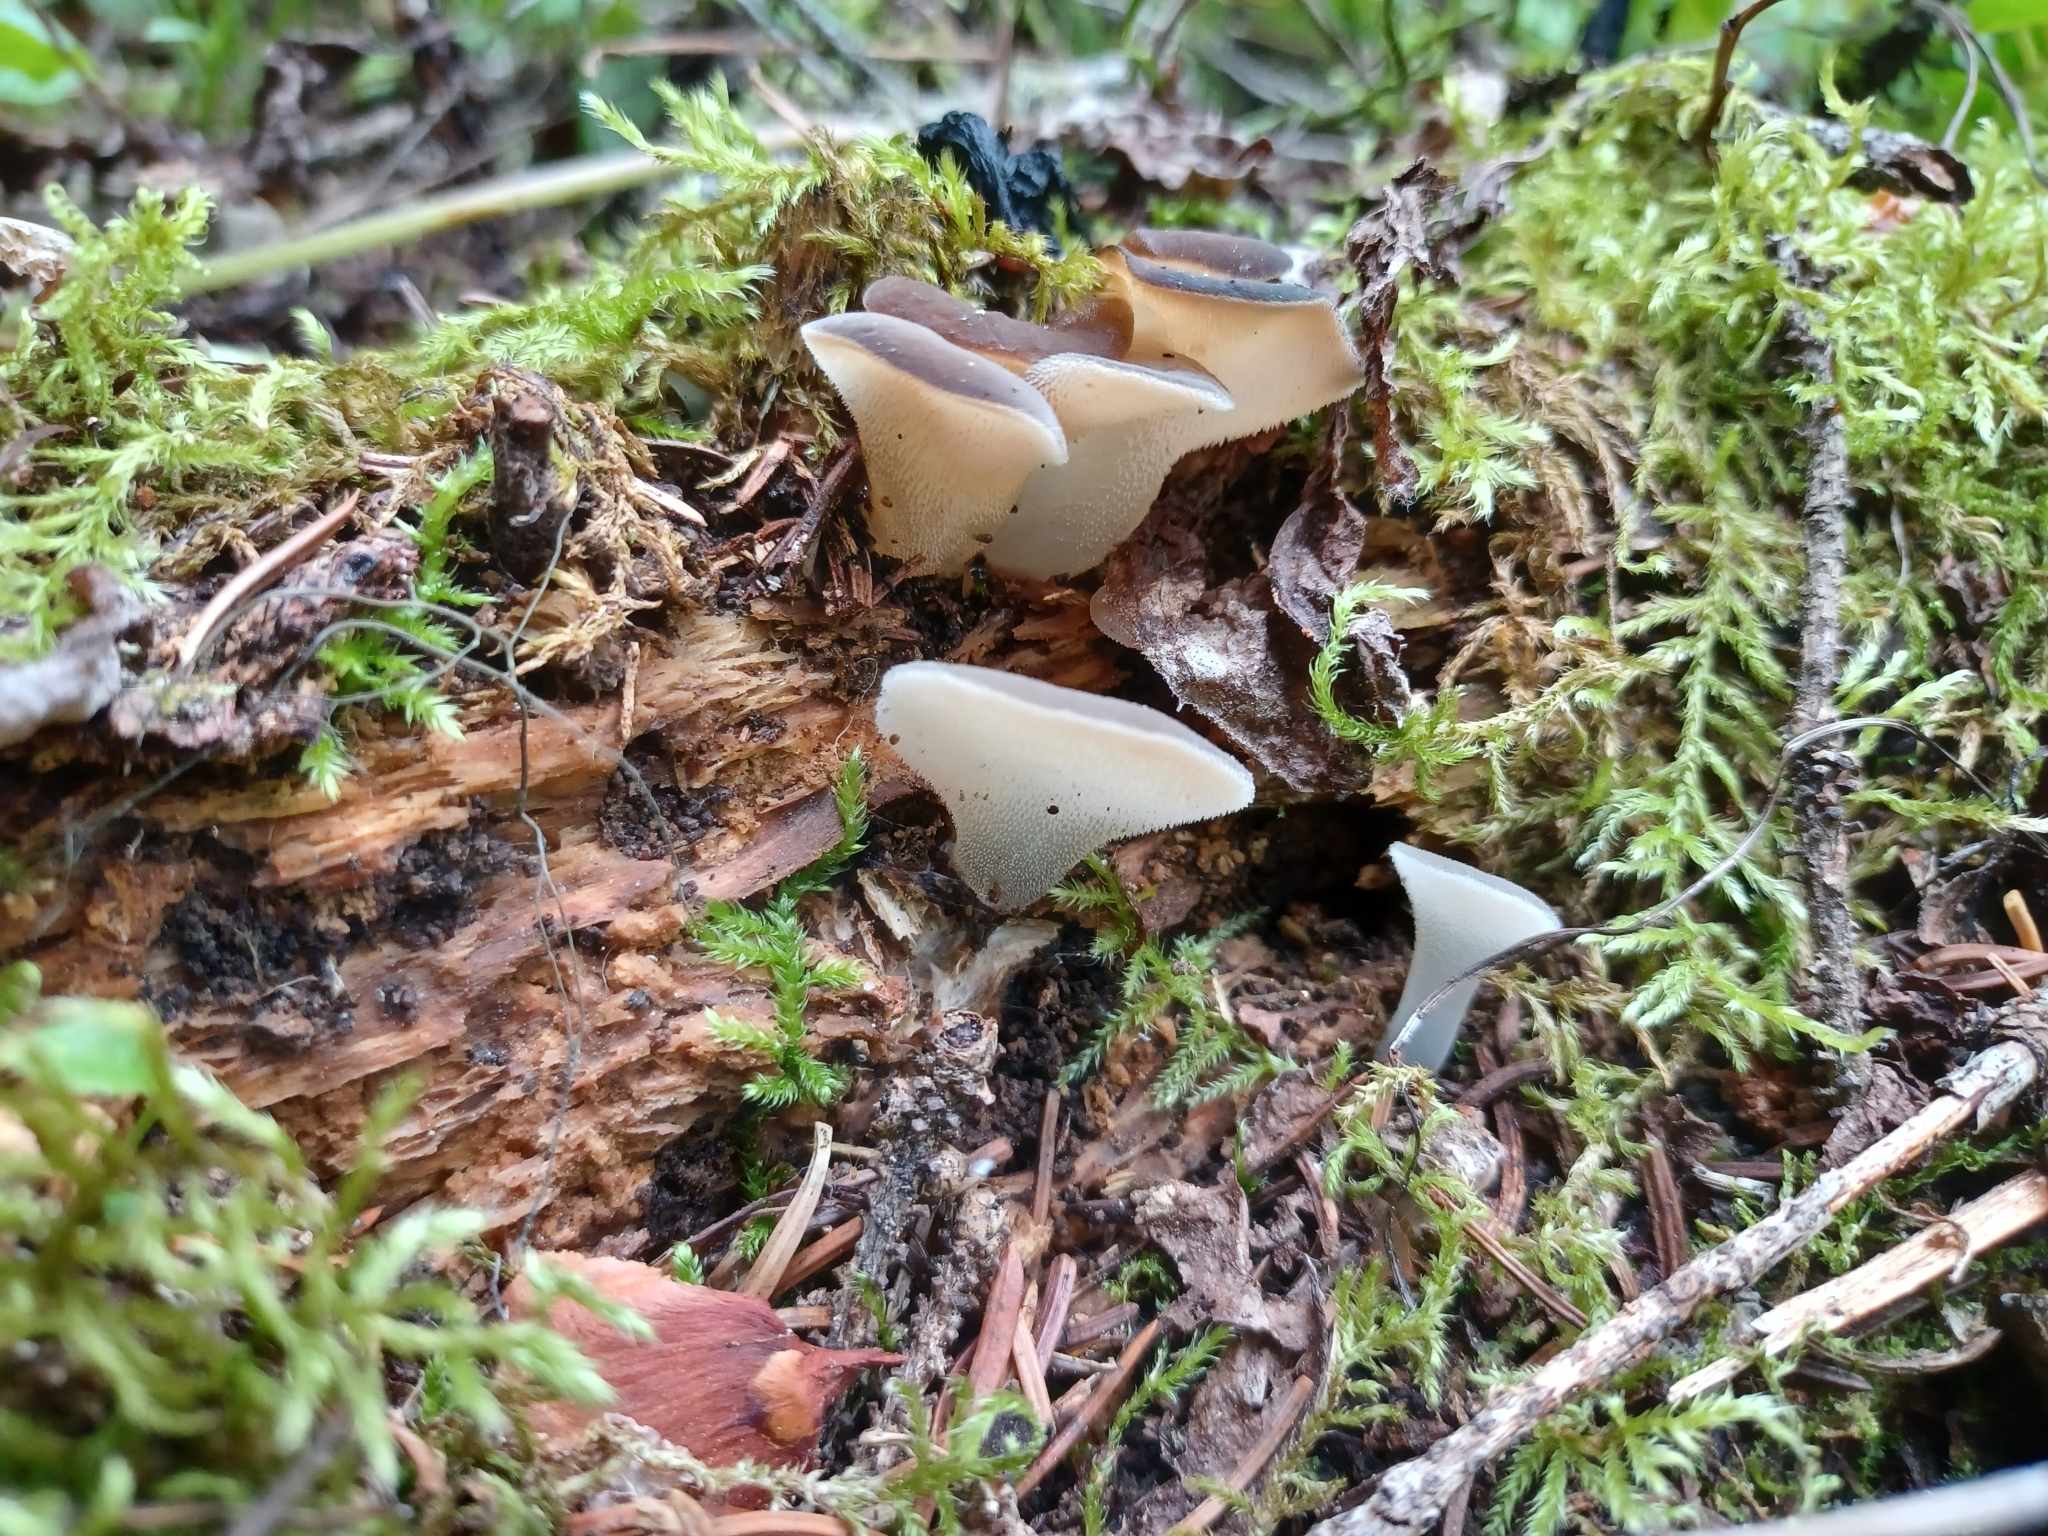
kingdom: Fungi
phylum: Basidiomycota
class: Agaricomycetes
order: Auriculariales
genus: Pseudohydnum
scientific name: Pseudohydnum gelatinosum
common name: Jelly tongue
